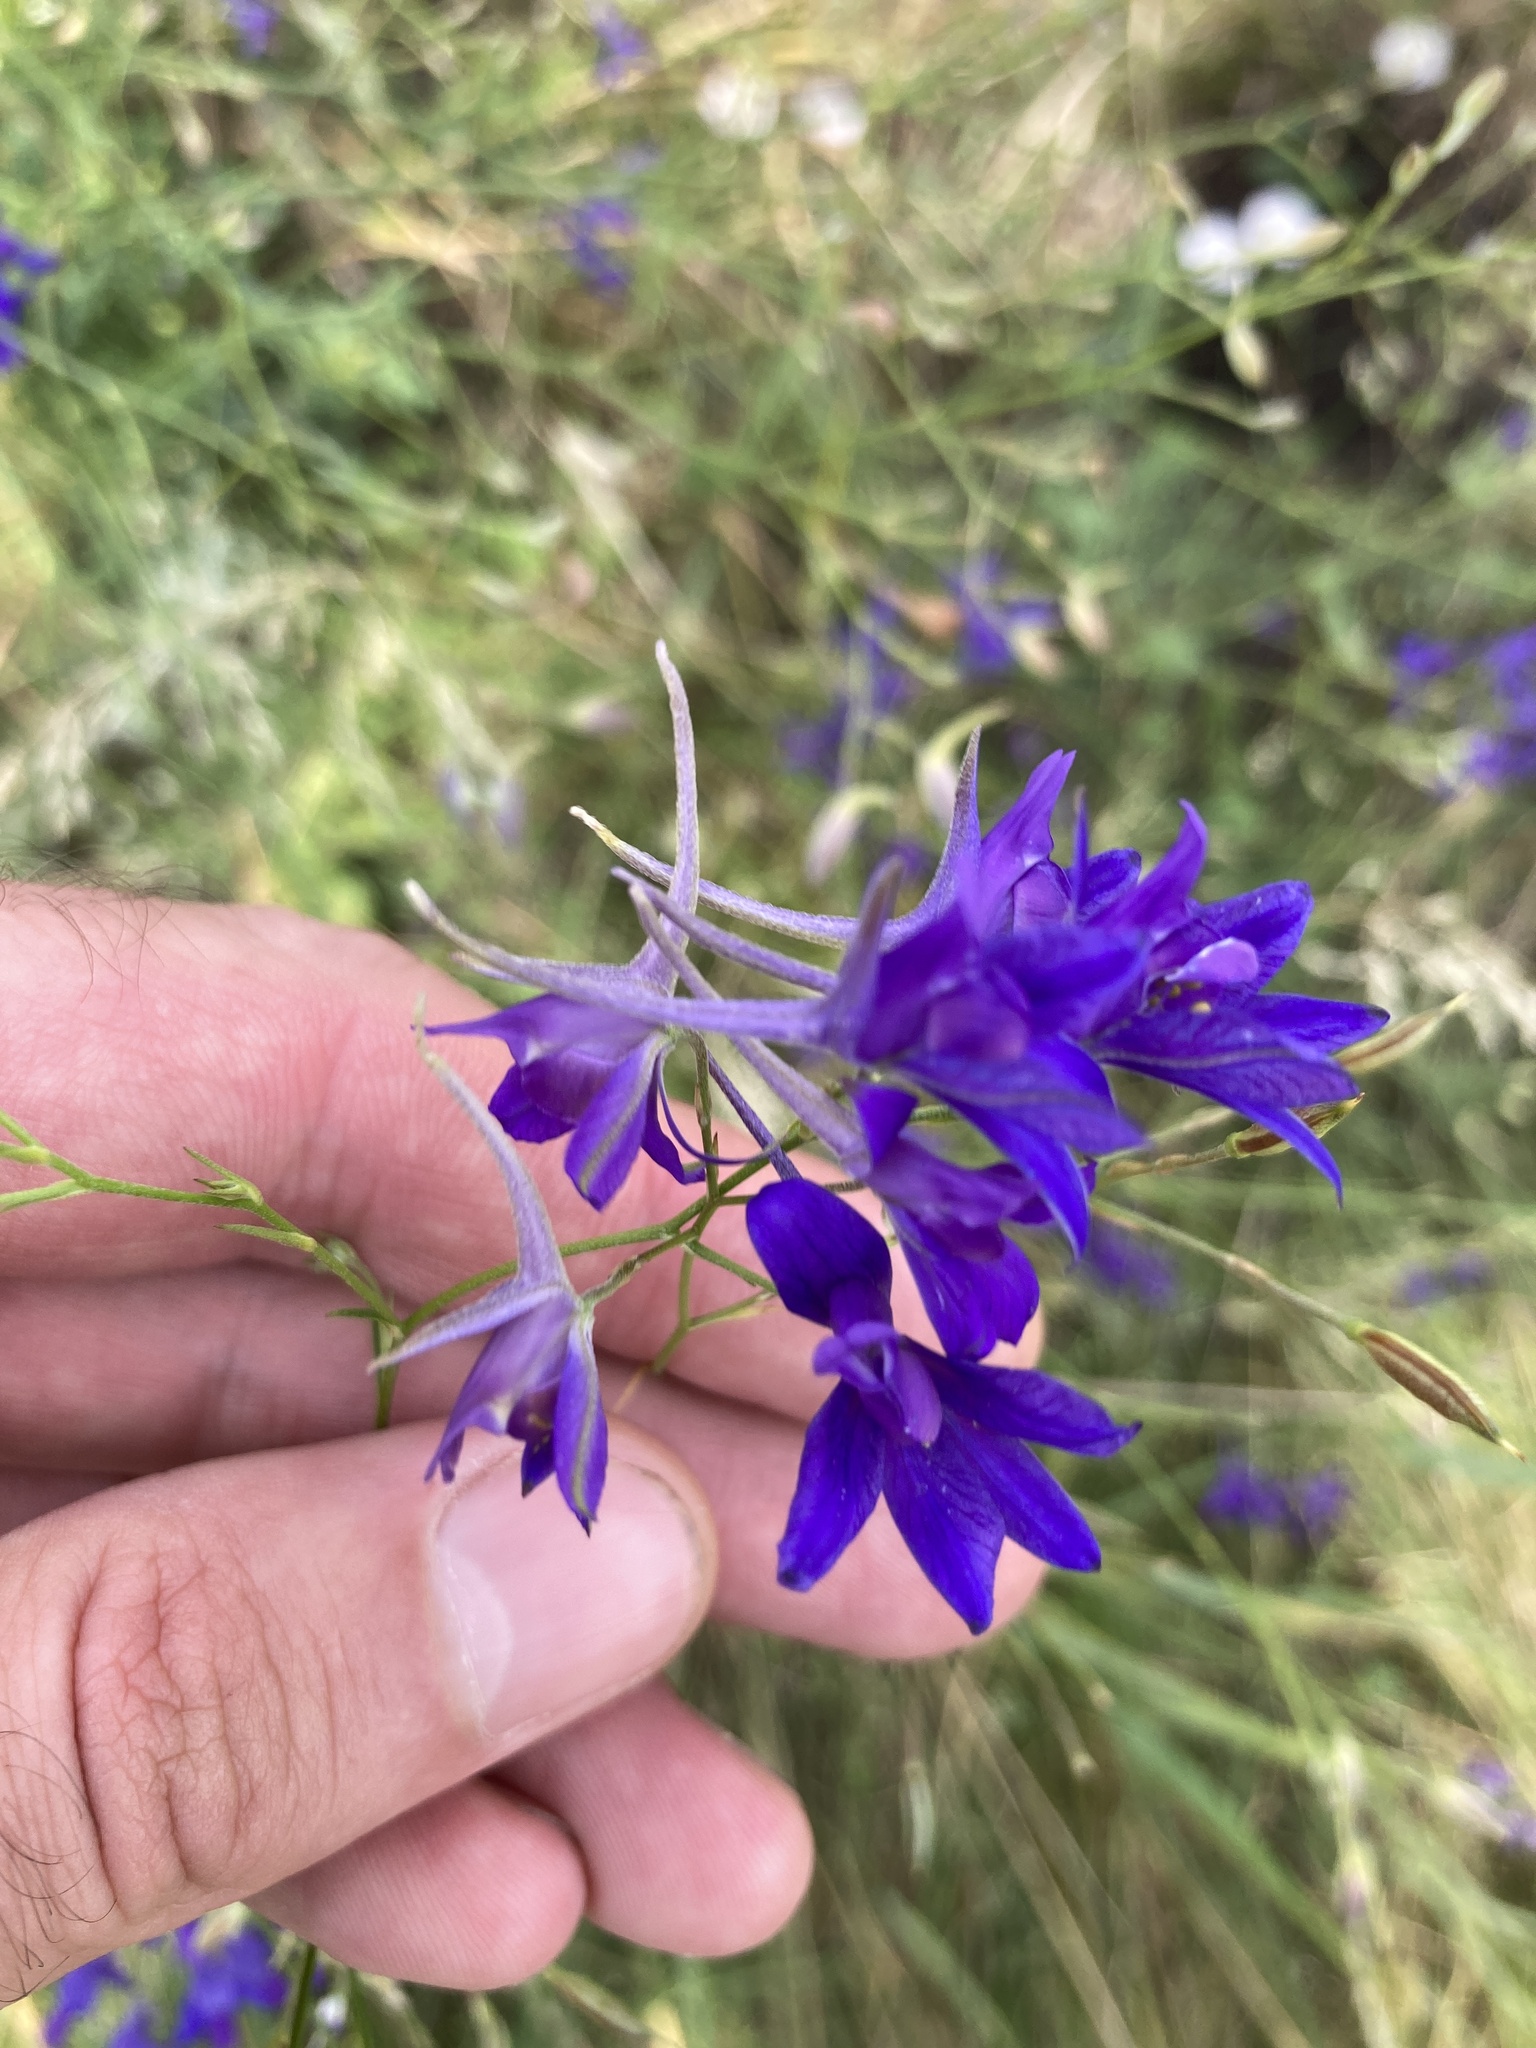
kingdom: Plantae
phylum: Tracheophyta
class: Magnoliopsida
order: Ranunculales
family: Ranunculaceae
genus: Delphinium
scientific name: Delphinium consolida
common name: Branching larkspur
